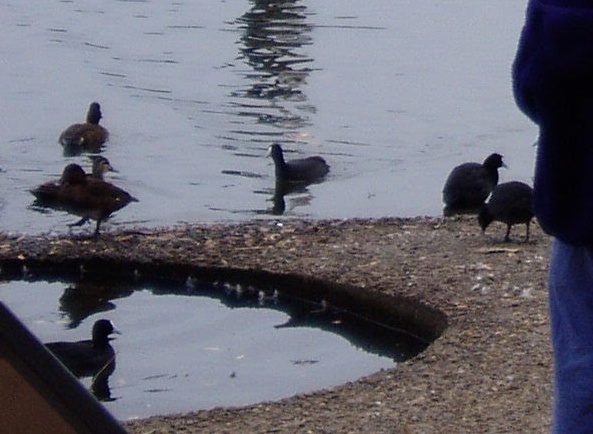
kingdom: Animalia
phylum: Chordata
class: Aves
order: Anseriformes
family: Anatidae
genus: Aythya
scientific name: Aythya australis
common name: Hardhead
